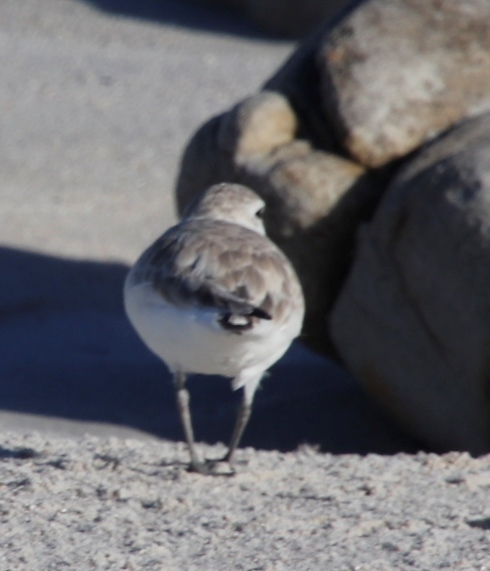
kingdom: Animalia
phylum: Chordata
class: Aves
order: Charadriiformes
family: Charadriidae
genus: Anarhynchus
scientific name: Anarhynchus
